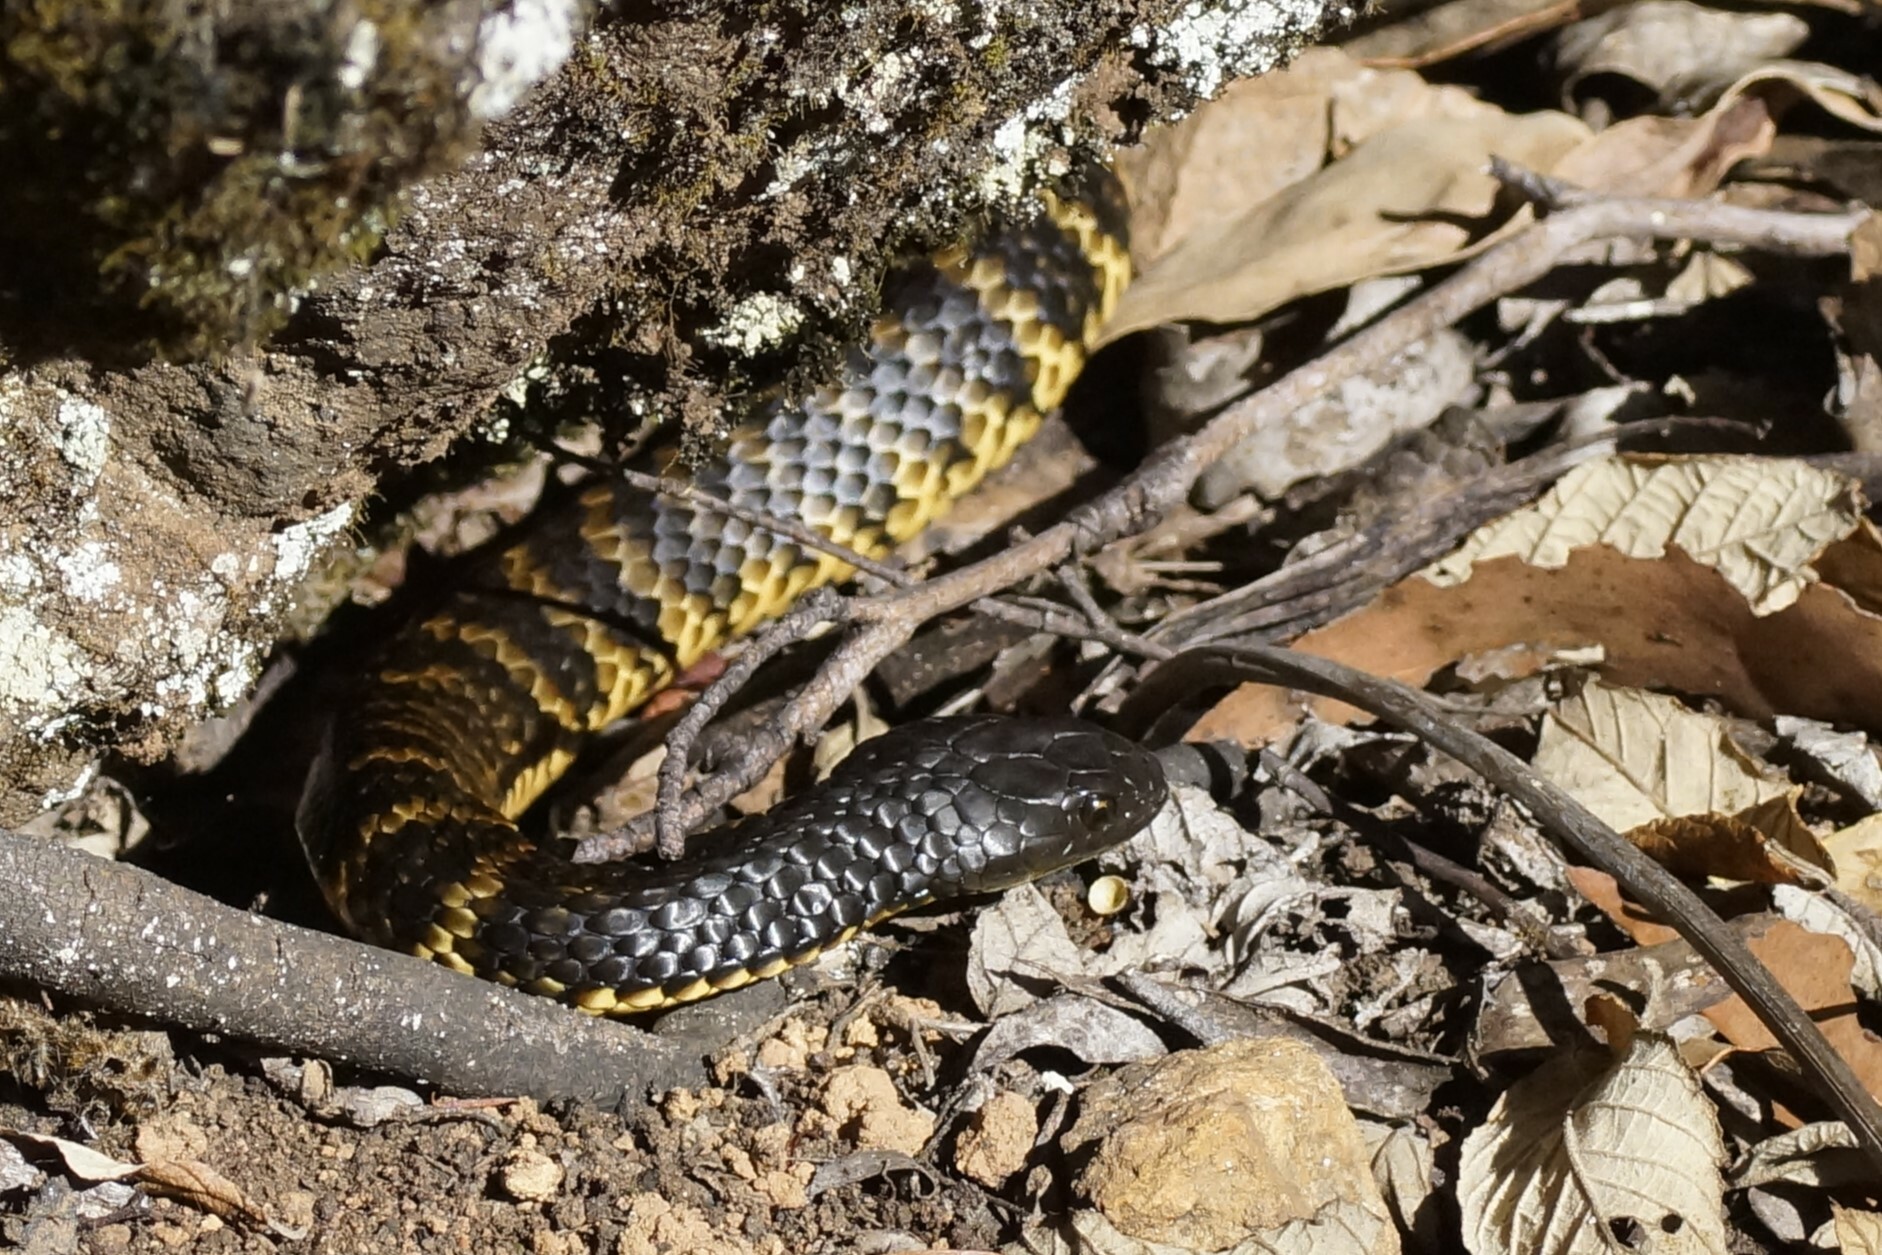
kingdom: Animalia
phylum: Chordata
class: Squamata
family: Elapidae
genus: Notechis
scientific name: Notechis scutatus
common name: Mainland tiger snake
